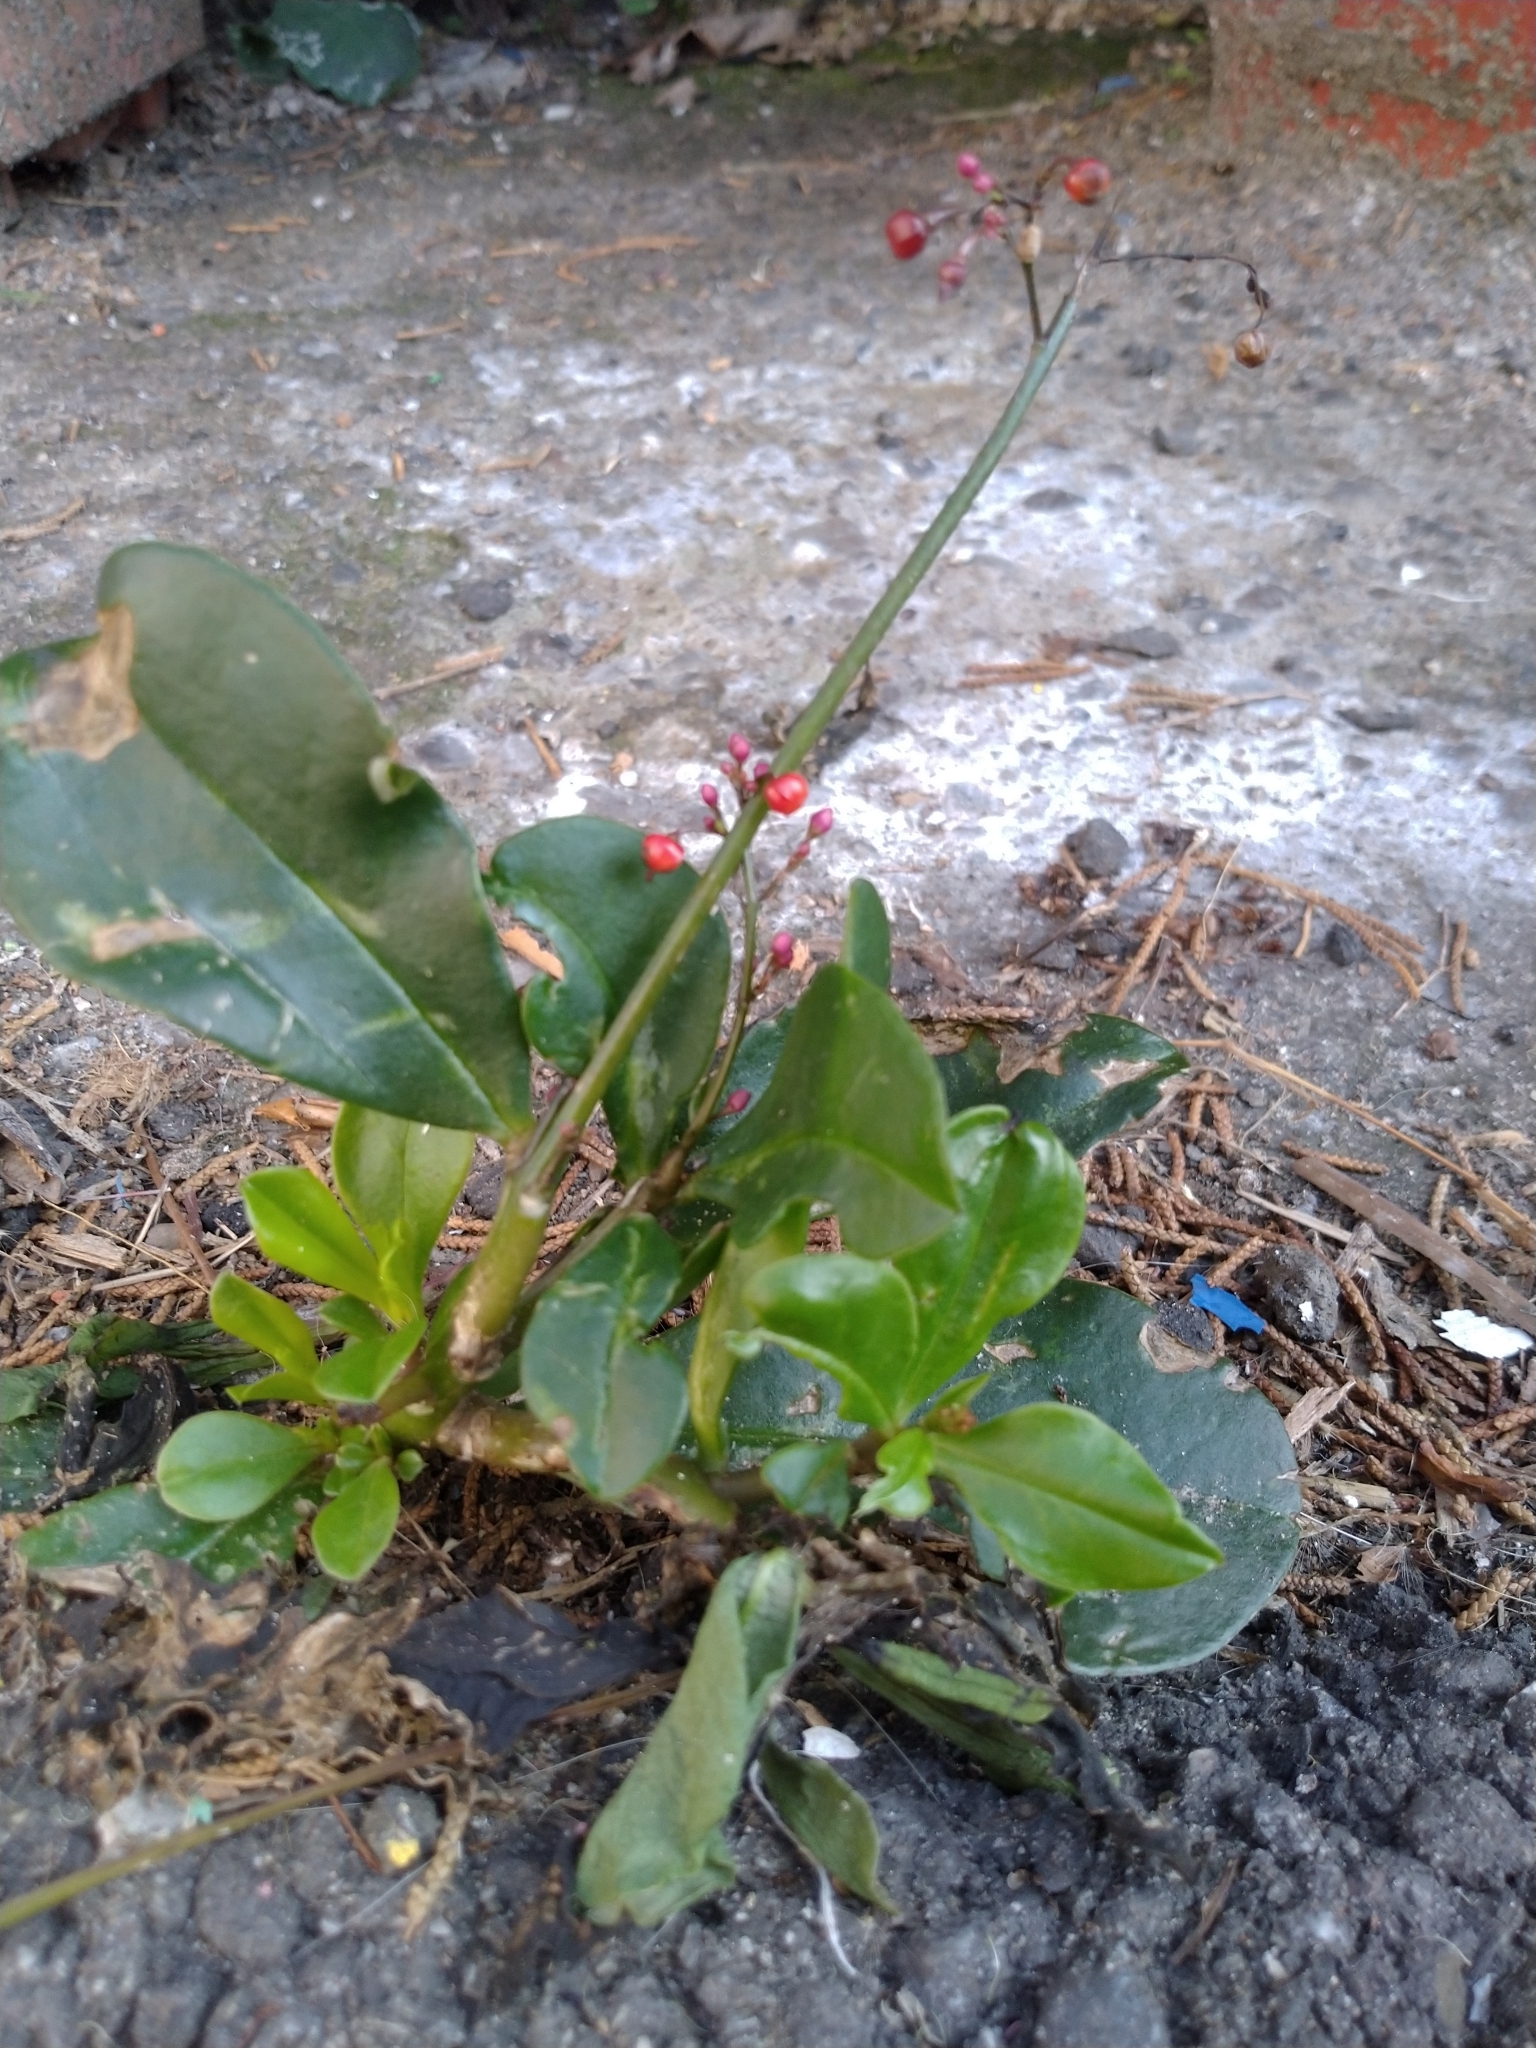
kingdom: Plantae
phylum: Tracheophyta
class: Magnoliopsida
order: Caryophyllales
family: Talinaceae
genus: Talinum
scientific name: Talinum paniculatum
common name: Jewels of opar
